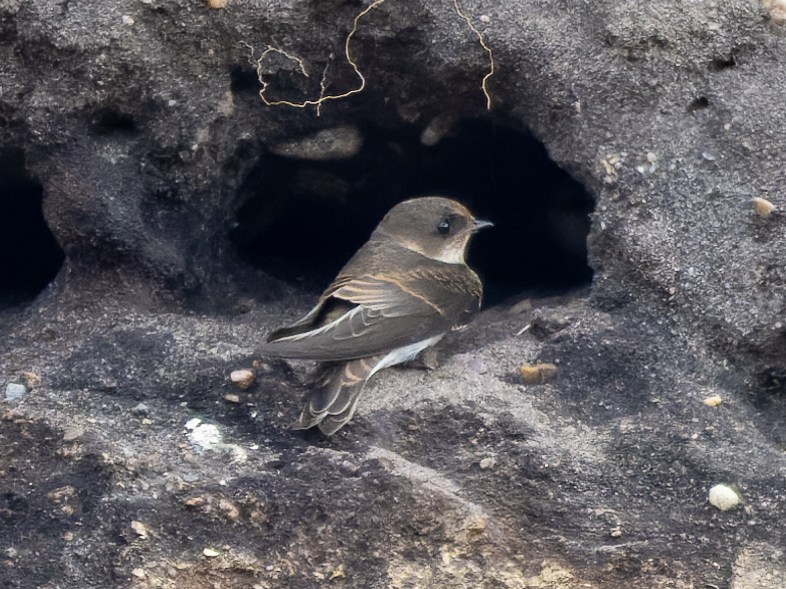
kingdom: Animalia
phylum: Chordata
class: Aves
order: Passeriformes
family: Hirundinidae
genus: Riparia
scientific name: Riparia riparia
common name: Sand martin
